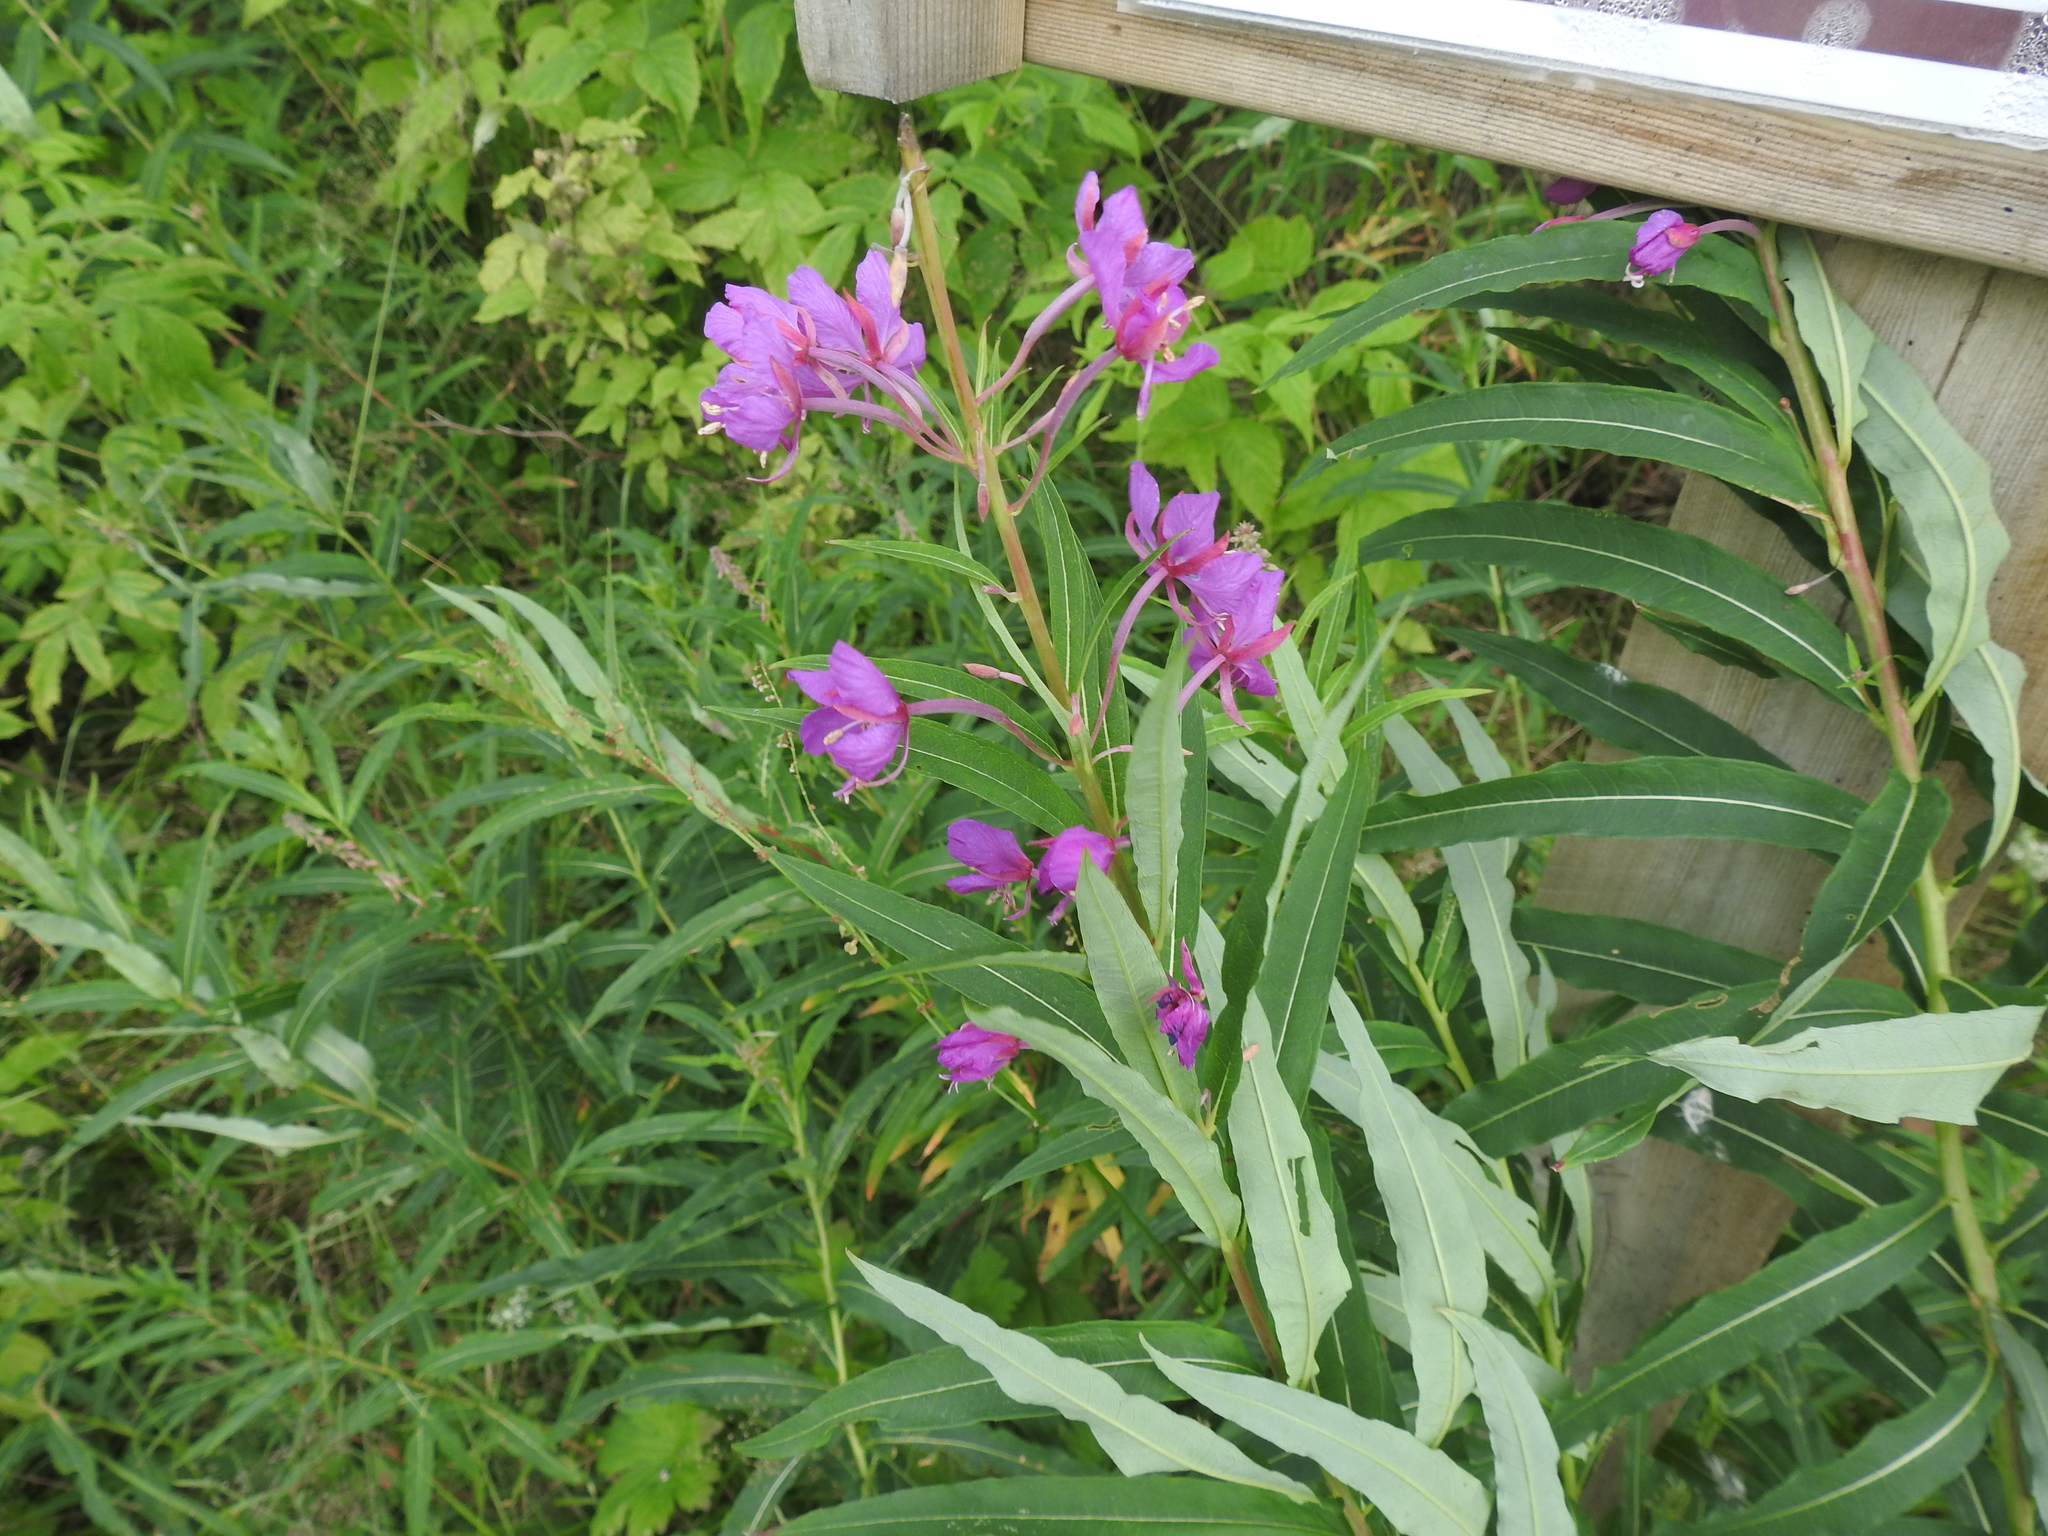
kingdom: Plantae
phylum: Tracheophyta
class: Magnoliopsida
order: Myrtales
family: Onagraceae
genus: Chamaenerion
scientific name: Chamaenerion angustifolium
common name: Fireweed
